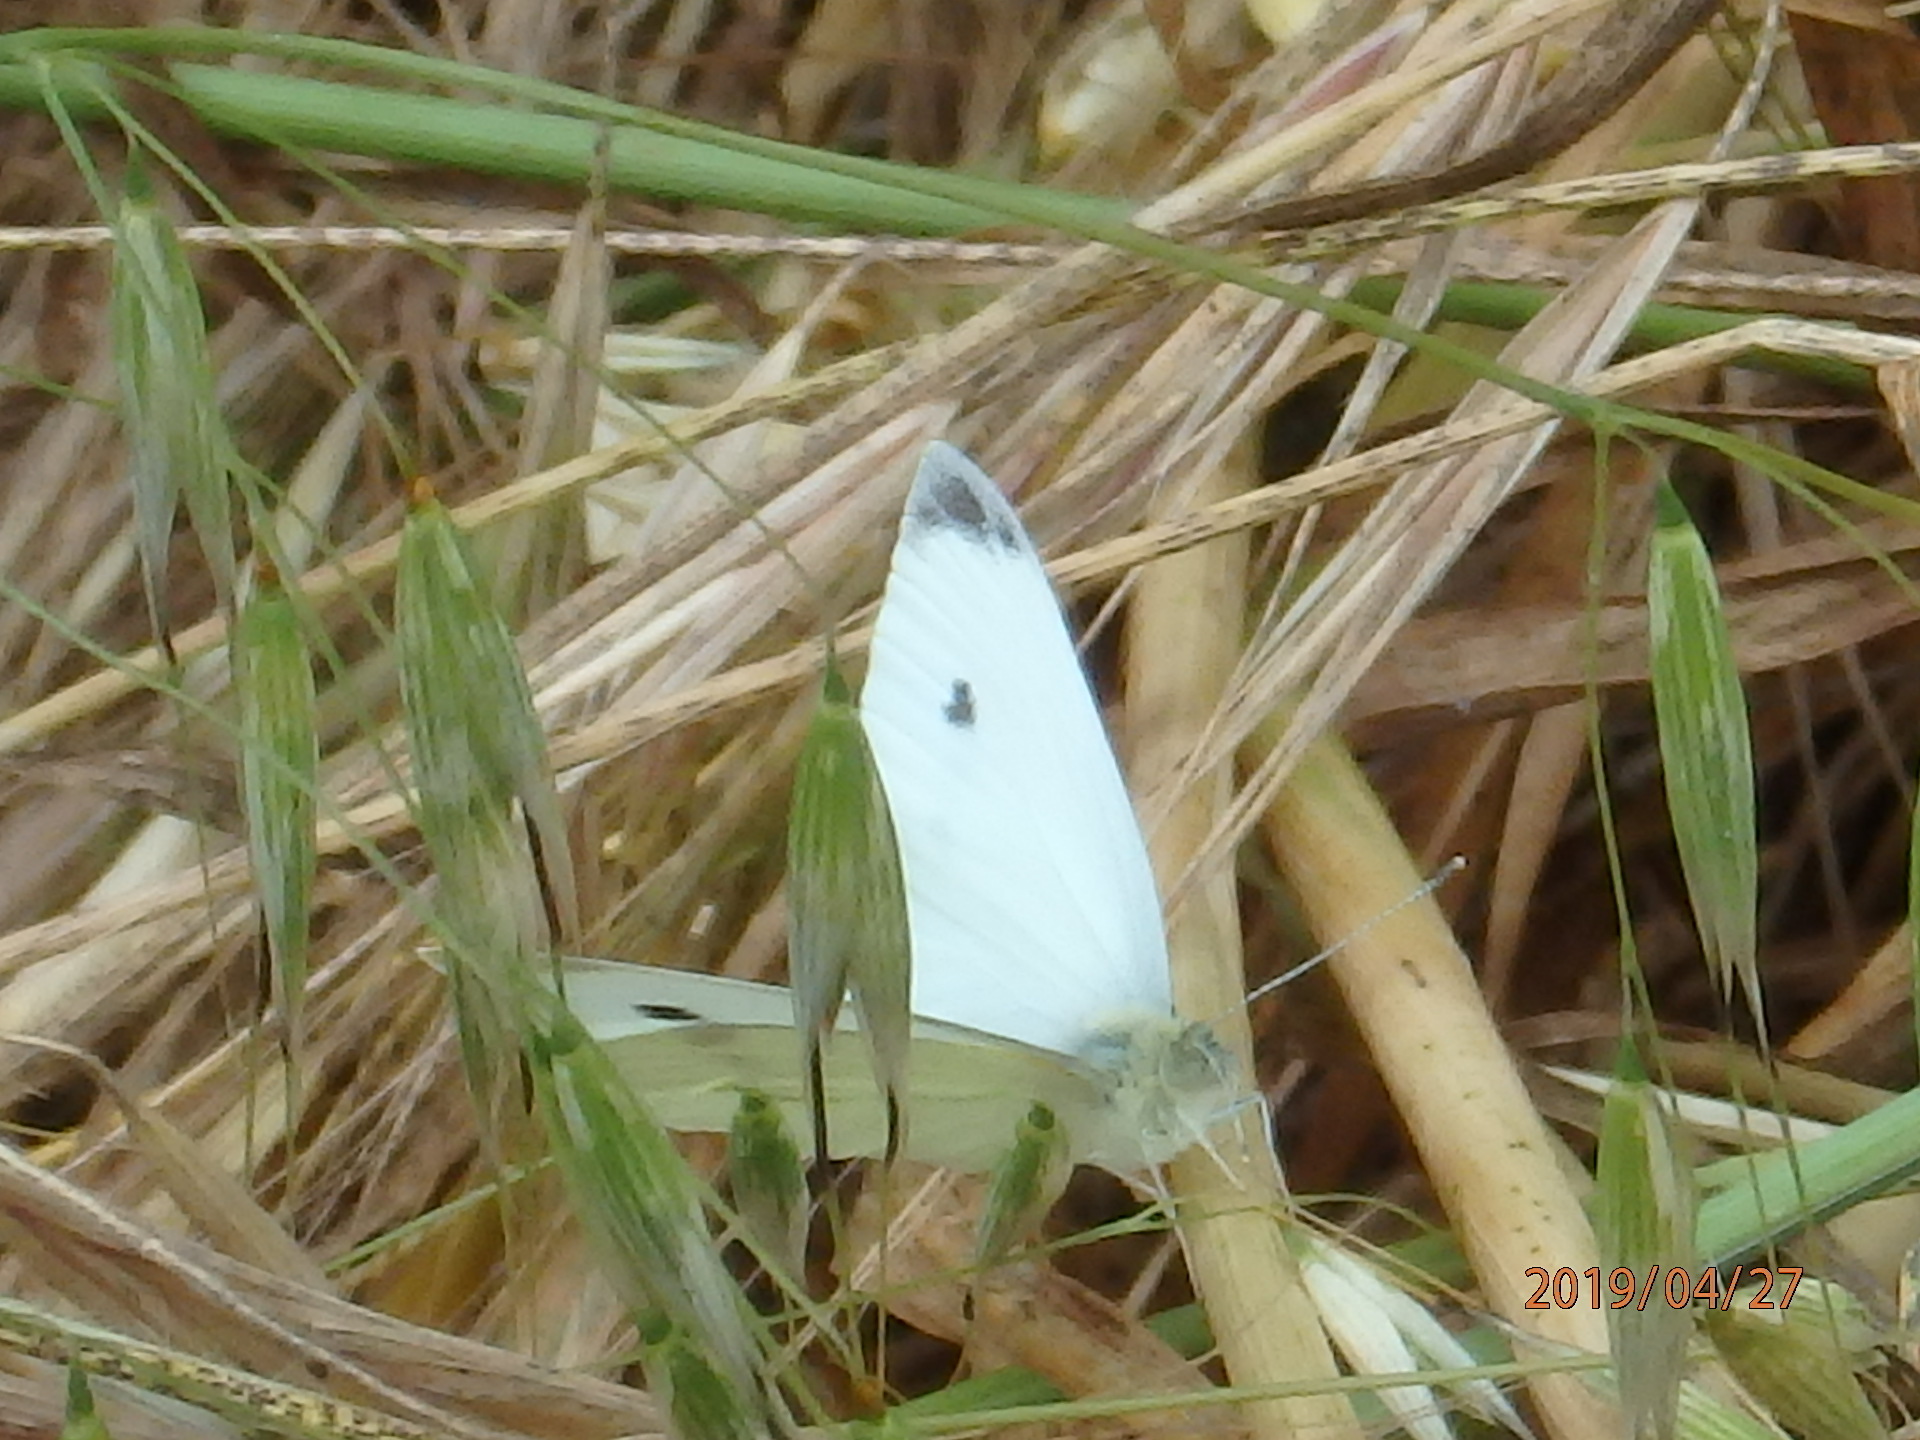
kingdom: Animalia
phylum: Arthropoda
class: Insecta
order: Lepidoptera
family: Pieridae
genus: Pieris
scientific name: Pieris rapae
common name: Small white
